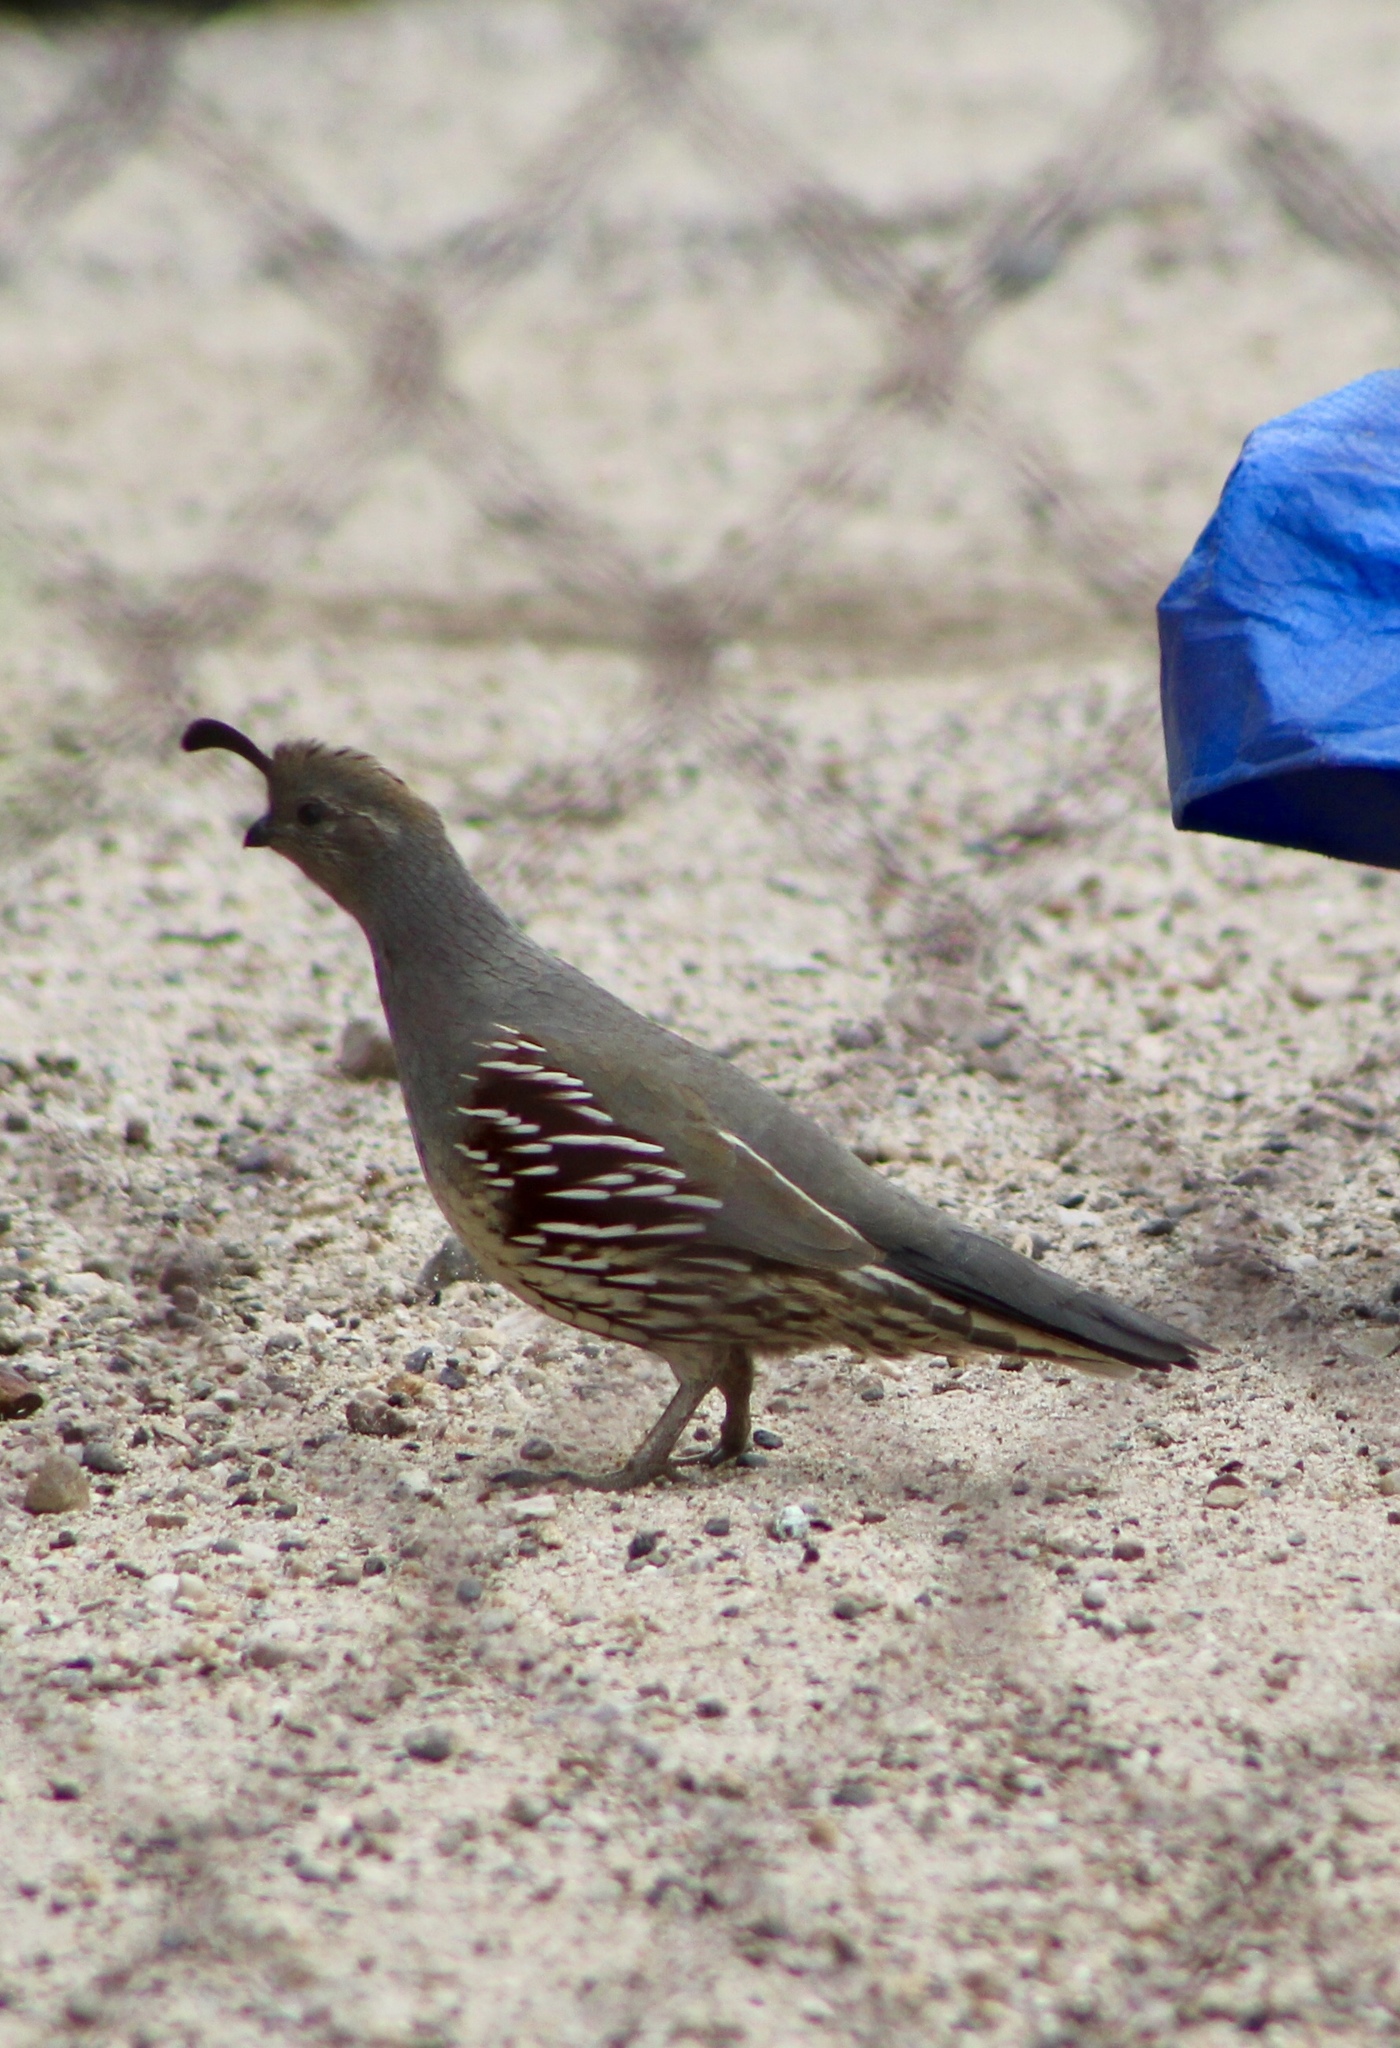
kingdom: Animalia
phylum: Chordata
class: Aves
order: Galliformes
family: Odontophoridae
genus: Callipepla
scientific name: Callipepla gambelii
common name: Gambel's quail
